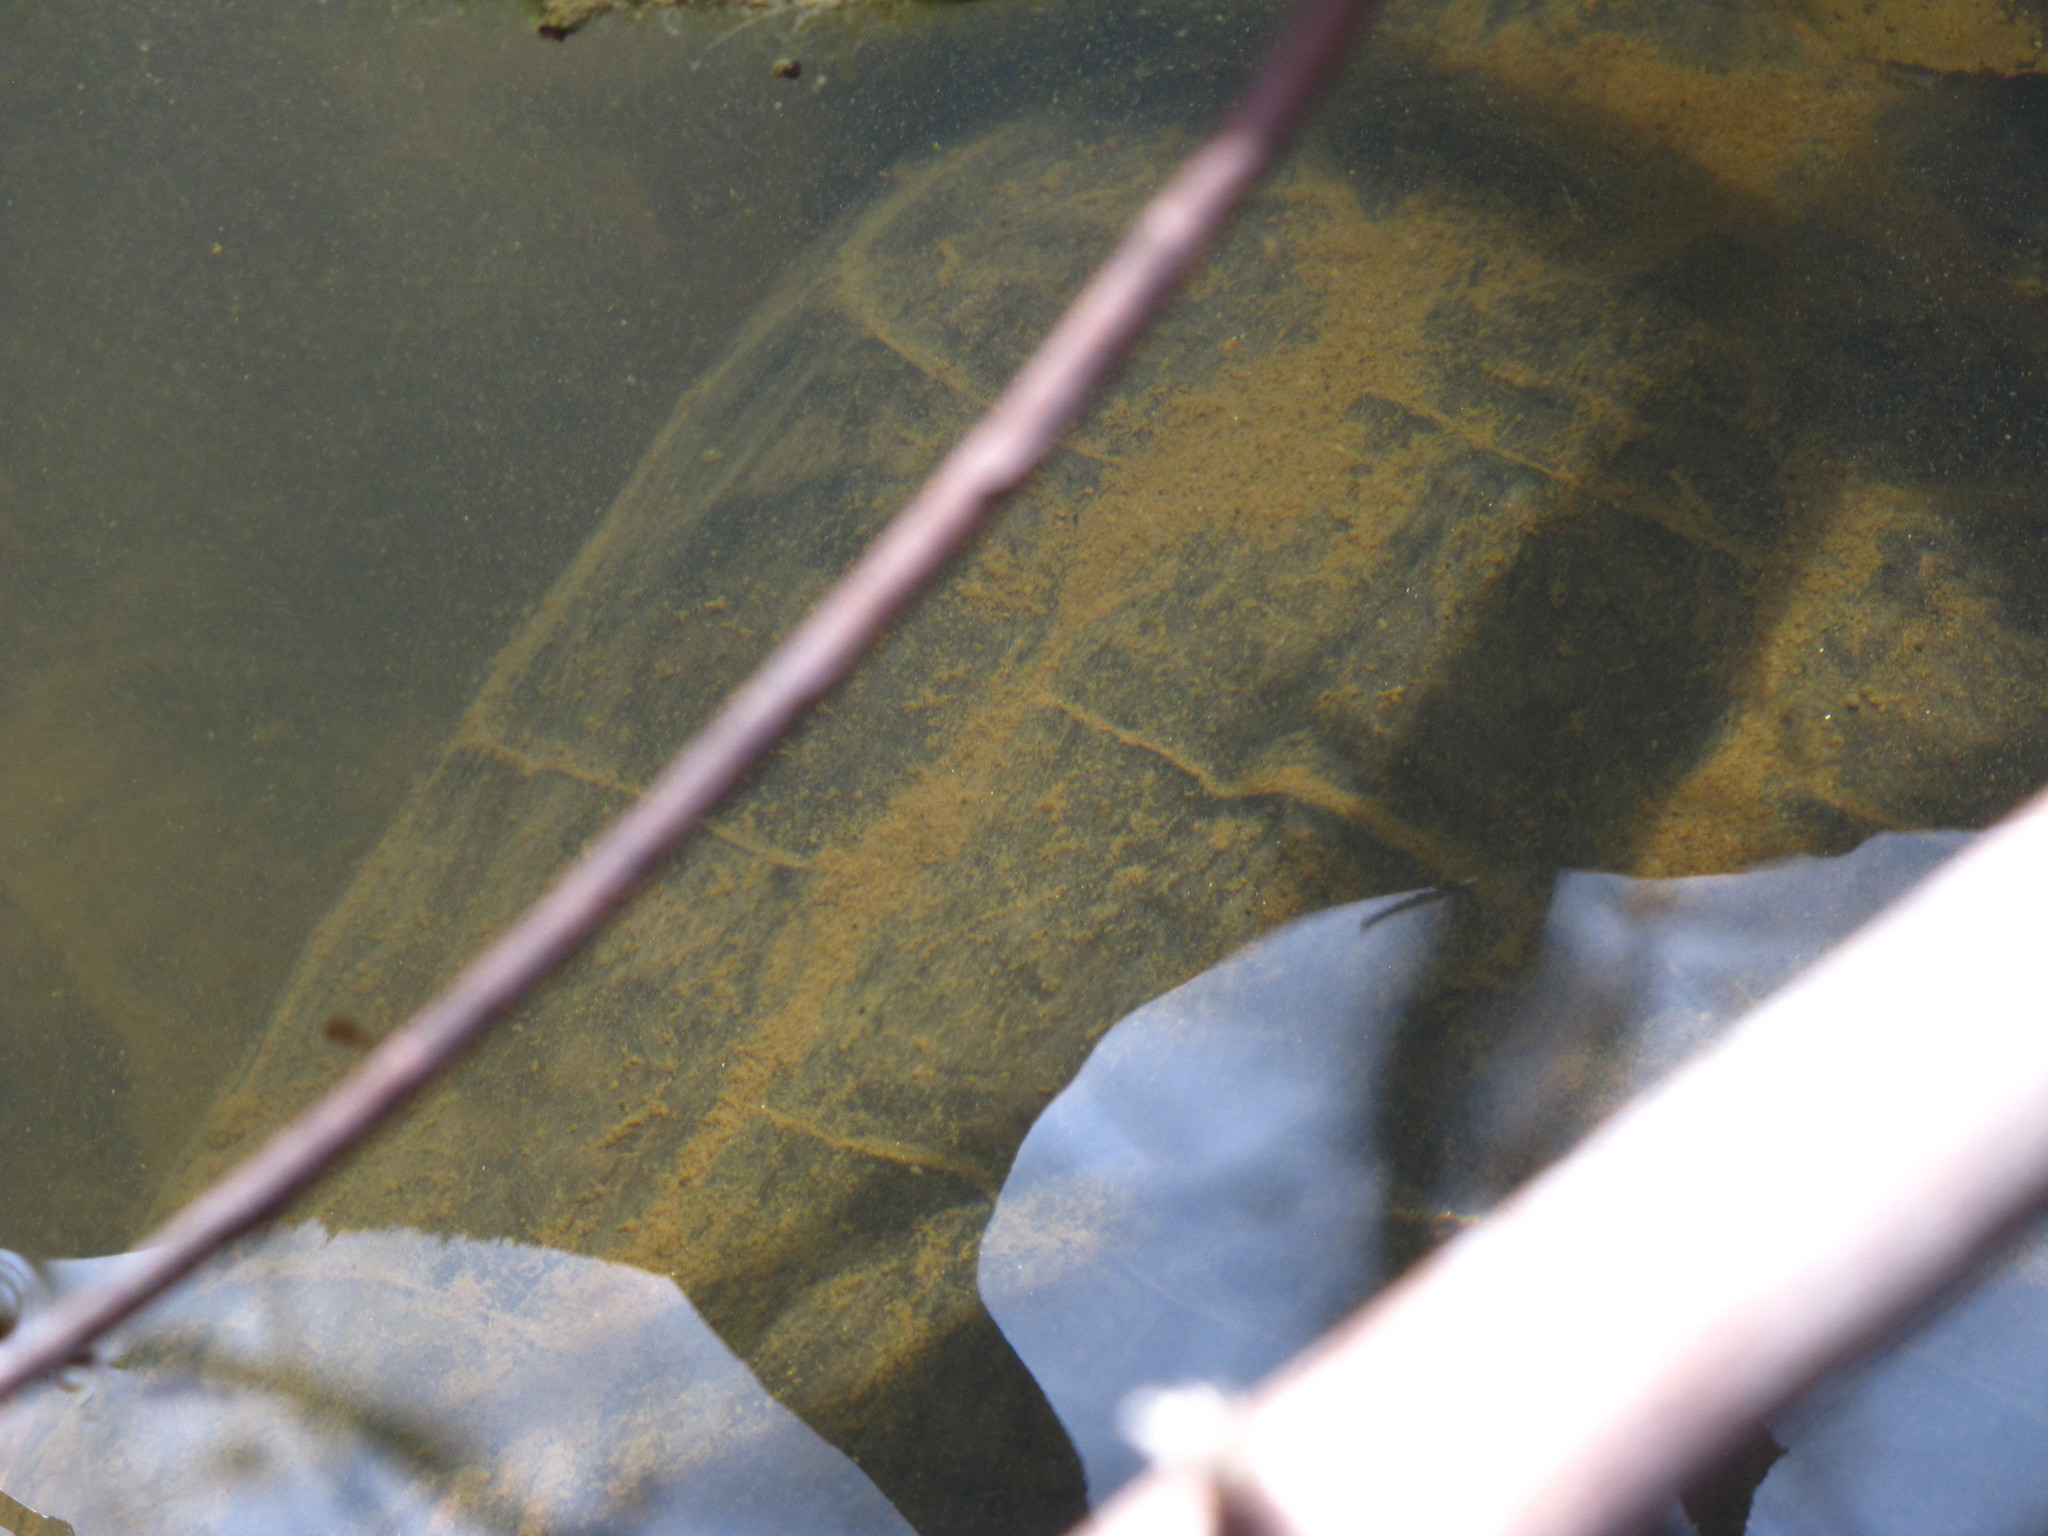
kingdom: Animalia
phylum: Chordata
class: Testudines
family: Chelydridae
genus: Chelydra
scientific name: Chelydra serpentina
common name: Common snapping turtle
